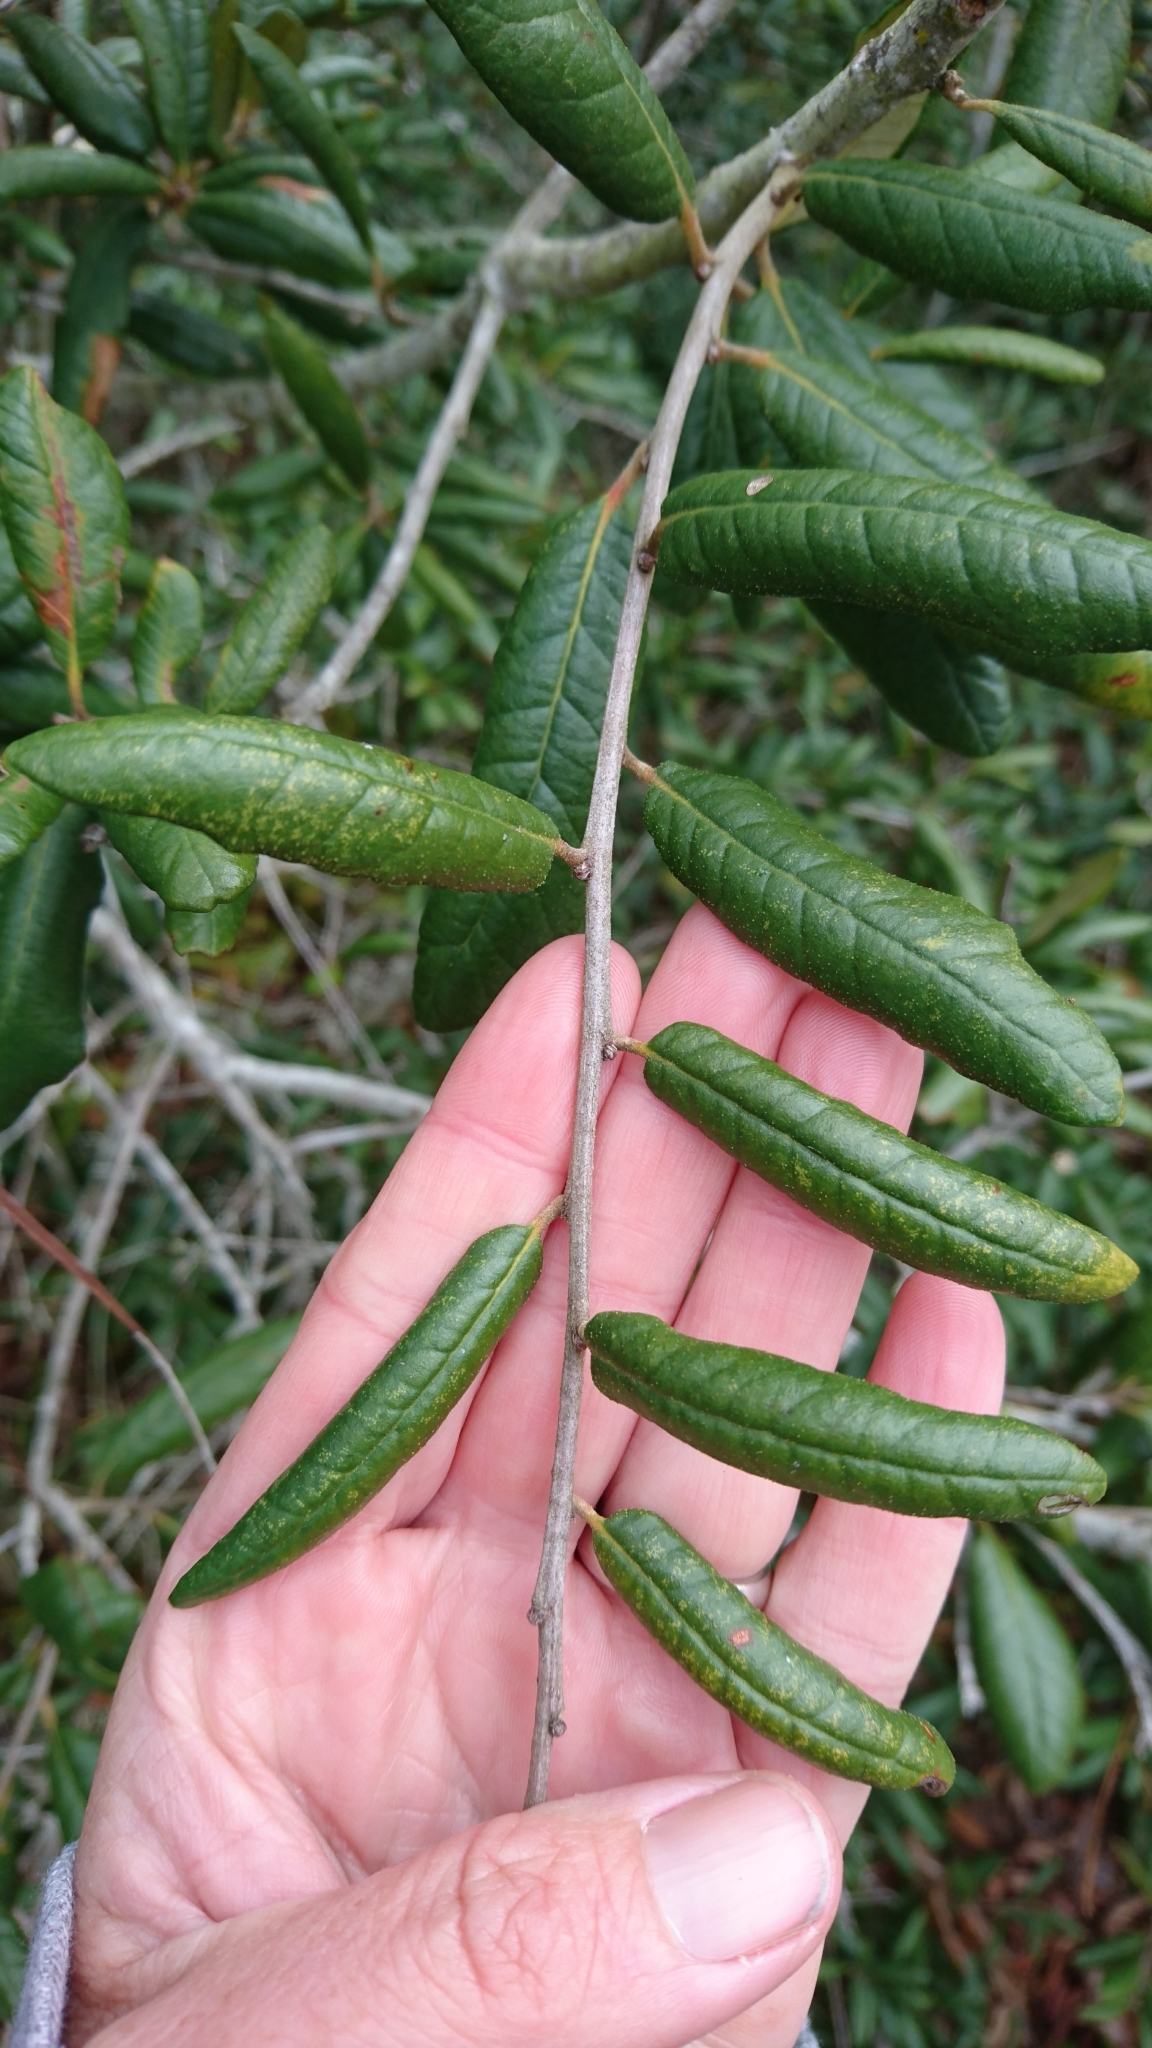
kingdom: Plantae
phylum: Tracheophyta
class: Magnoliopsida
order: Fagales
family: Fagaceae
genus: Quercus
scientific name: Quercus geminata
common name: Sand live oak
